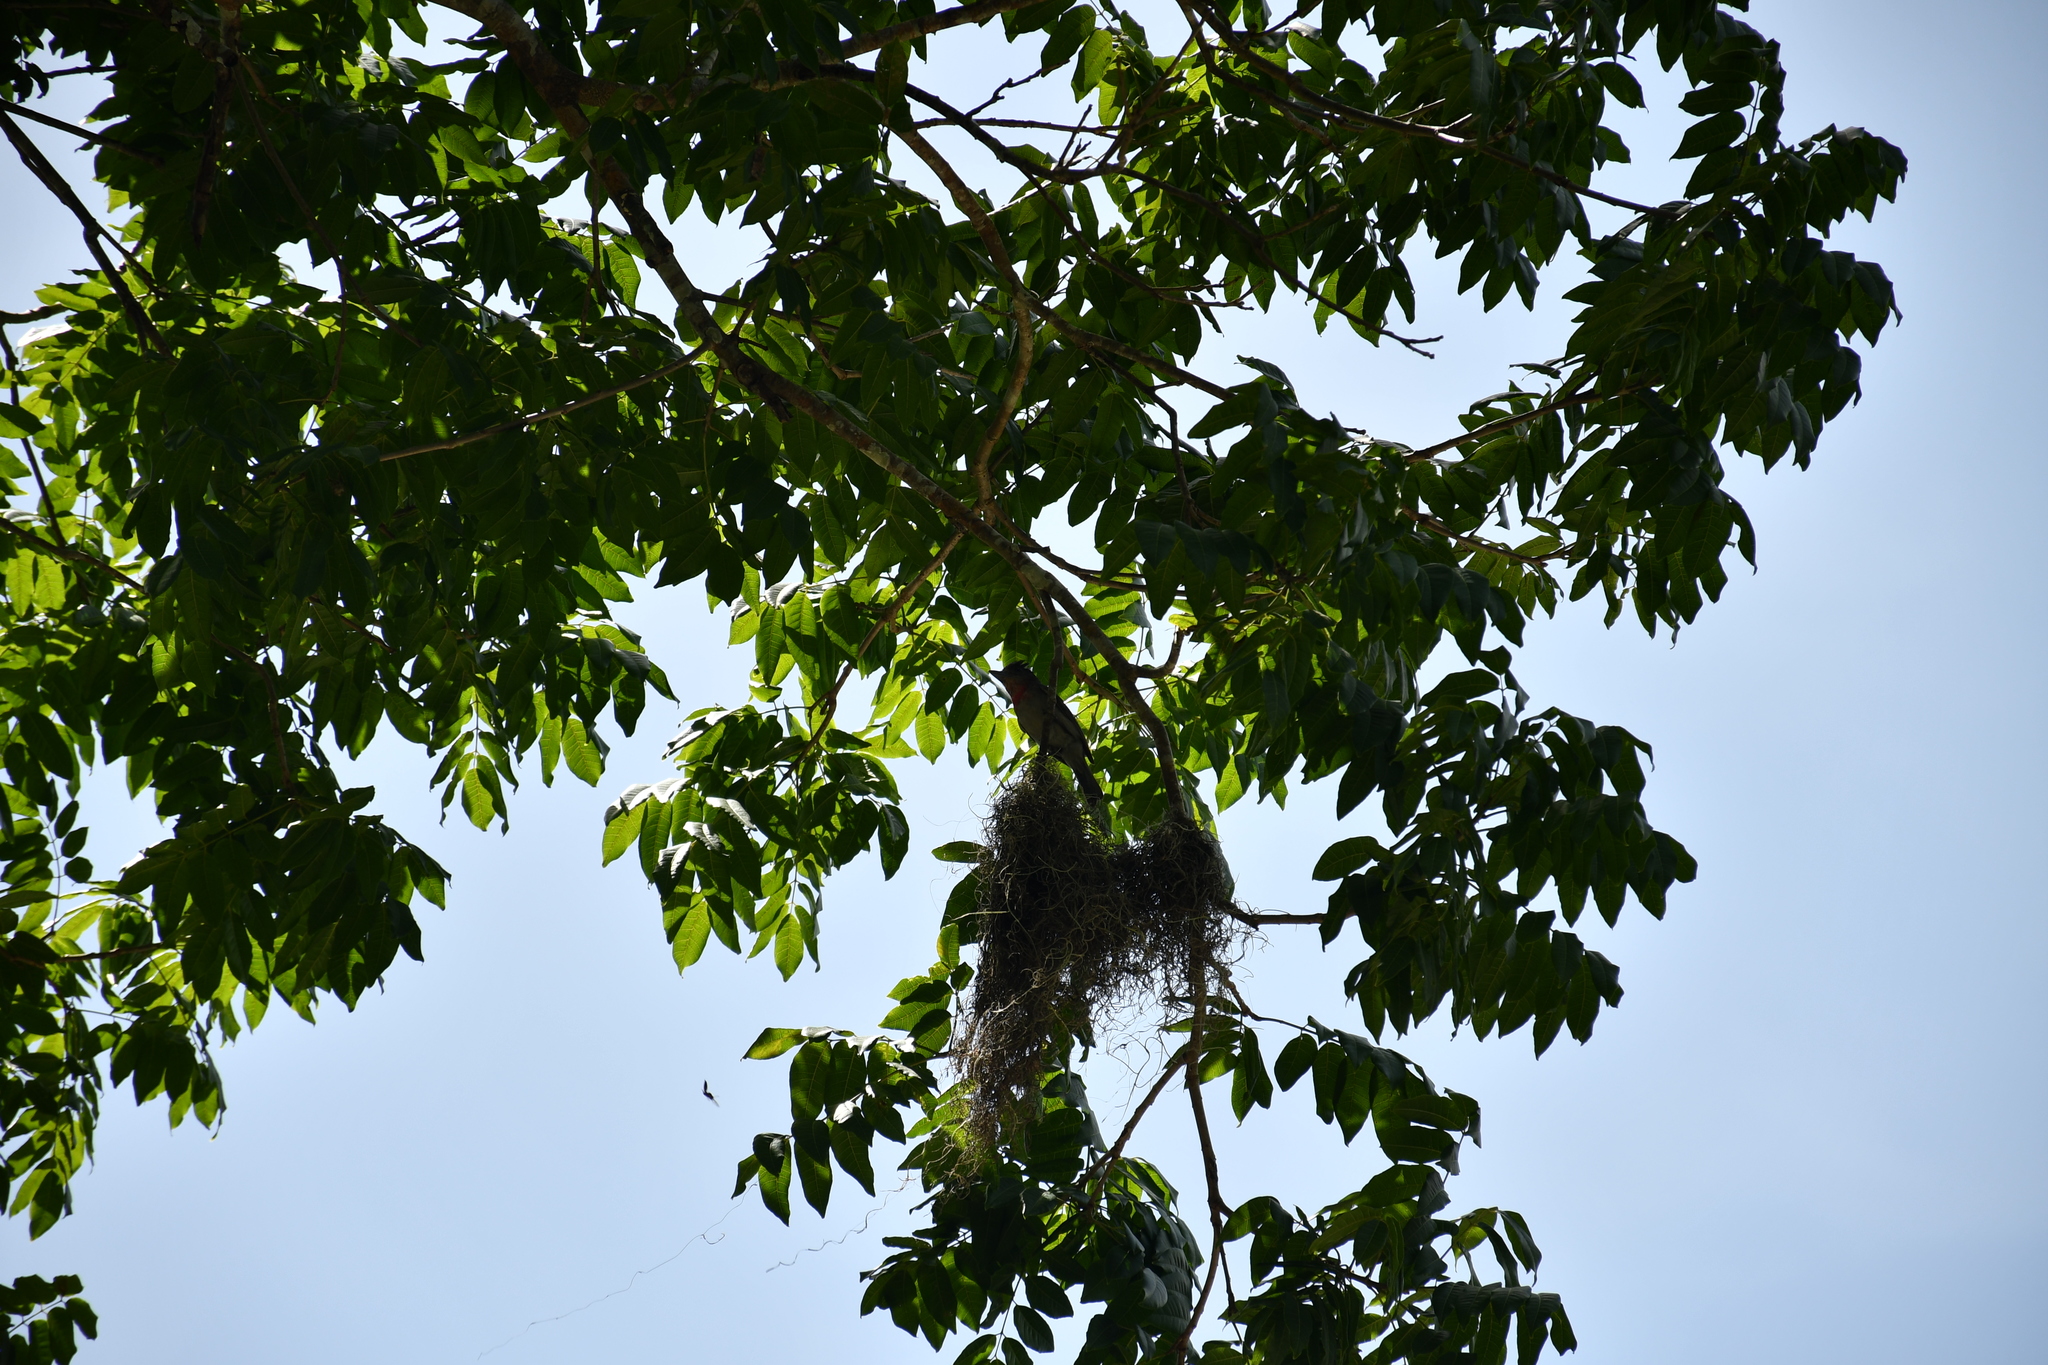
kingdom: Animalia
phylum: Chordata
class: Aves
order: Passeriformes
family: Cotingidae
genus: Pachyramphus
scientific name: Pachyramphus aglaiae
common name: Rose-throated becard
